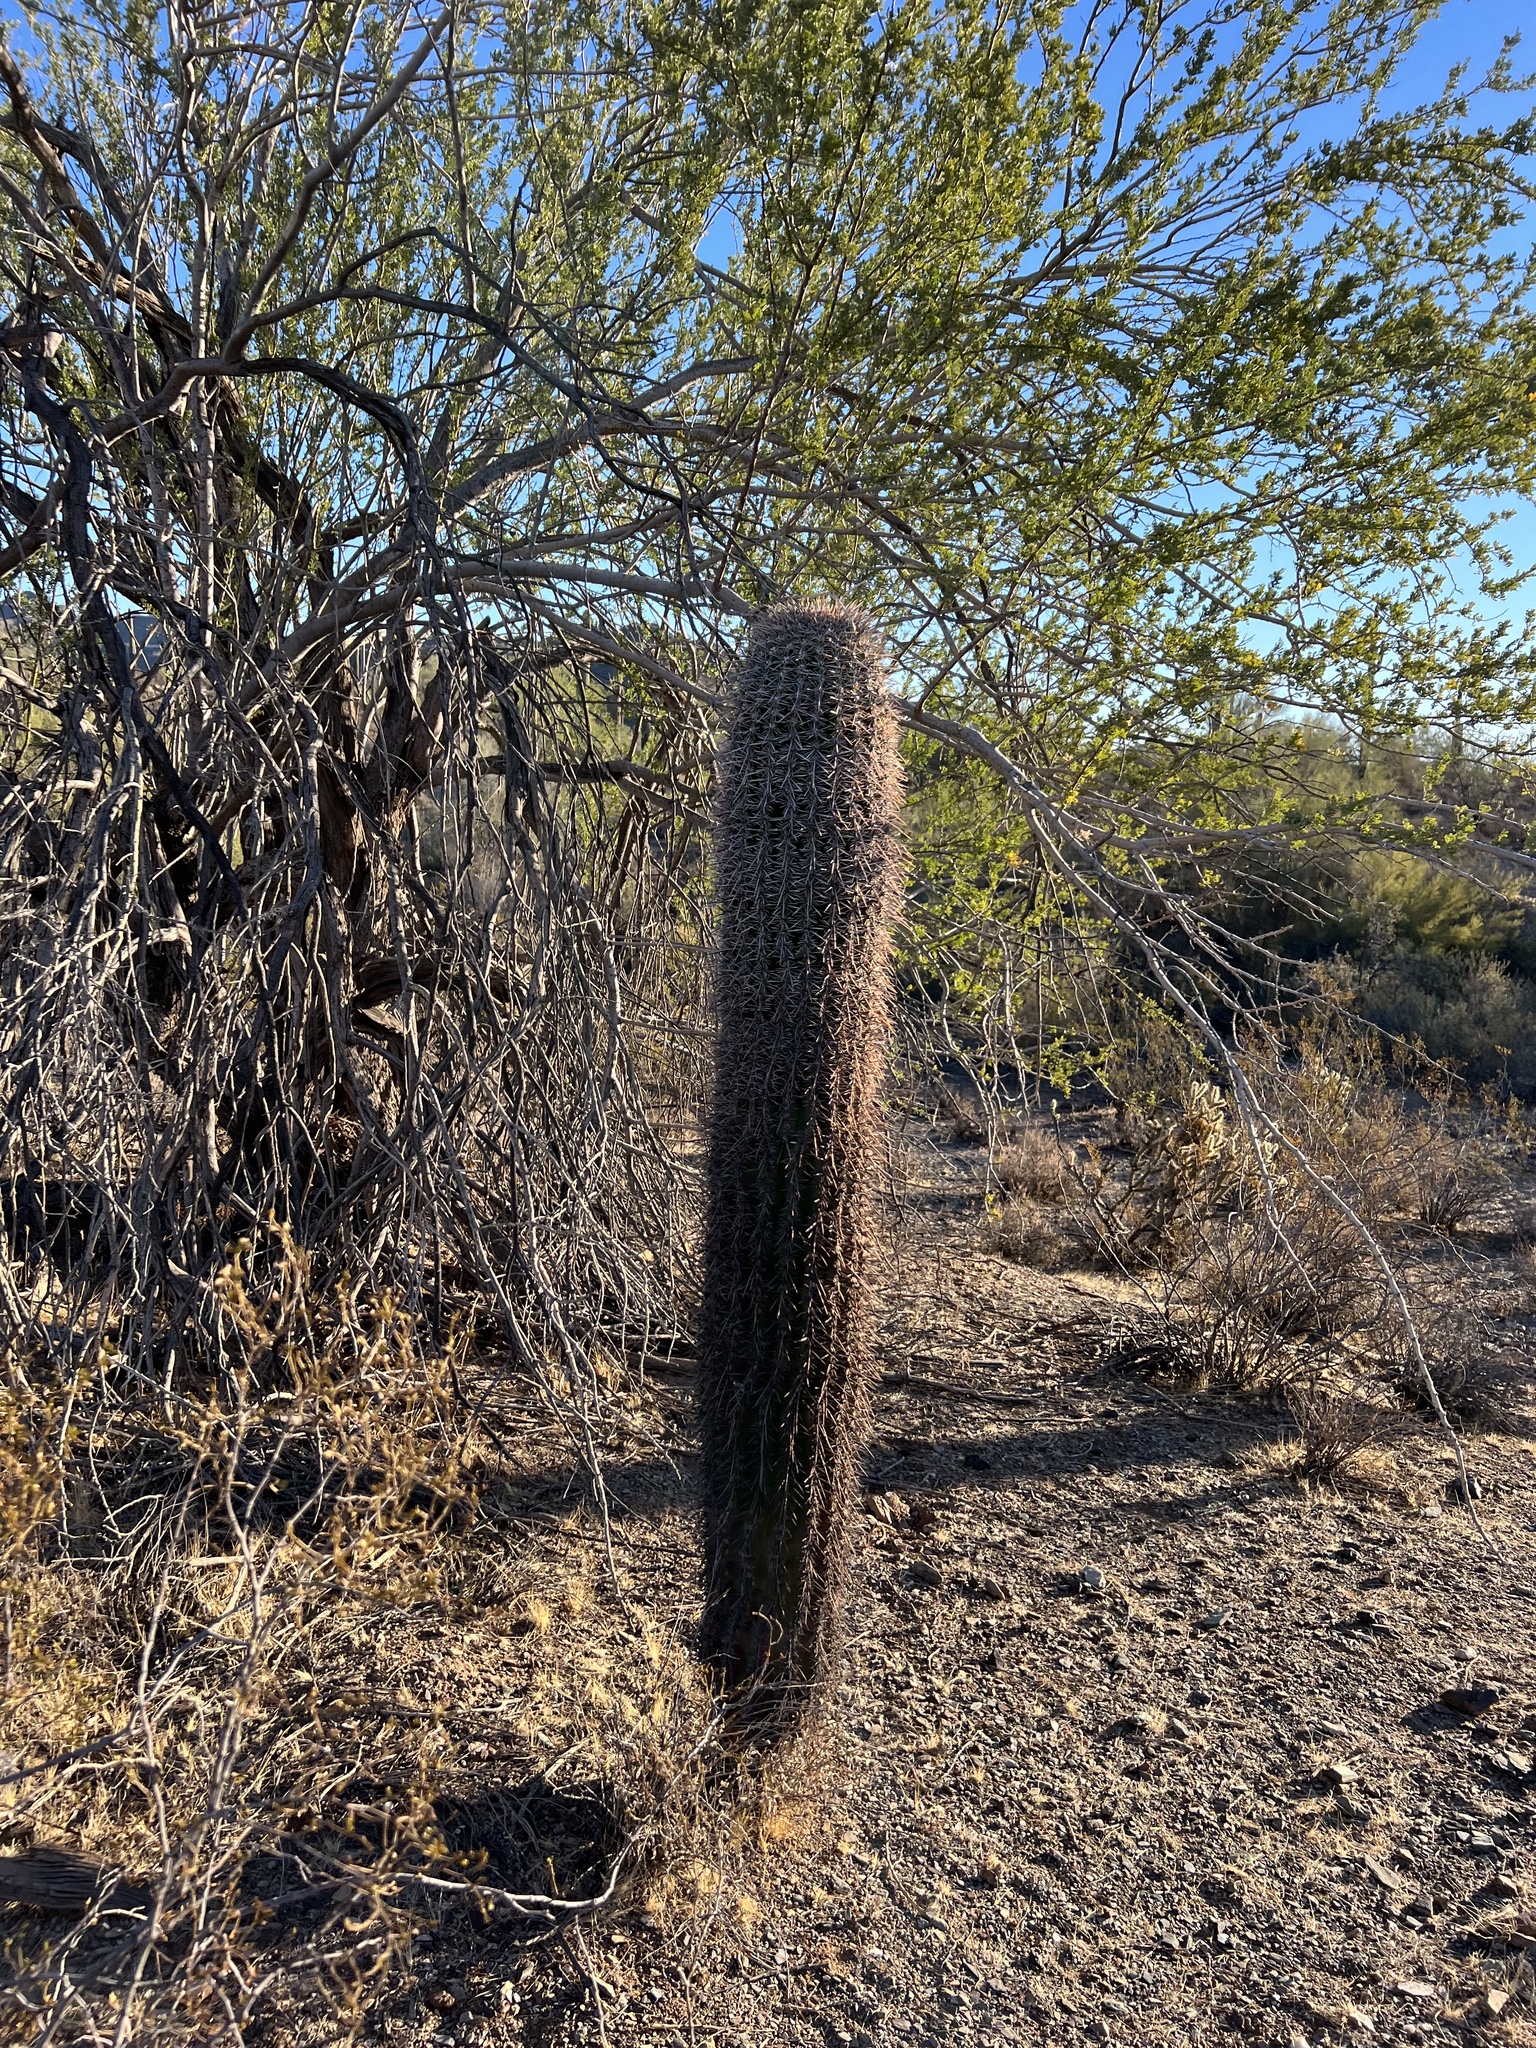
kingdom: Plantae
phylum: Tracheophyta
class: Magnoliopsida
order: Caryophyllales
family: Cactaceae
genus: Carnegiea
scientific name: Carnegiea gigantea
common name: Saguaro
